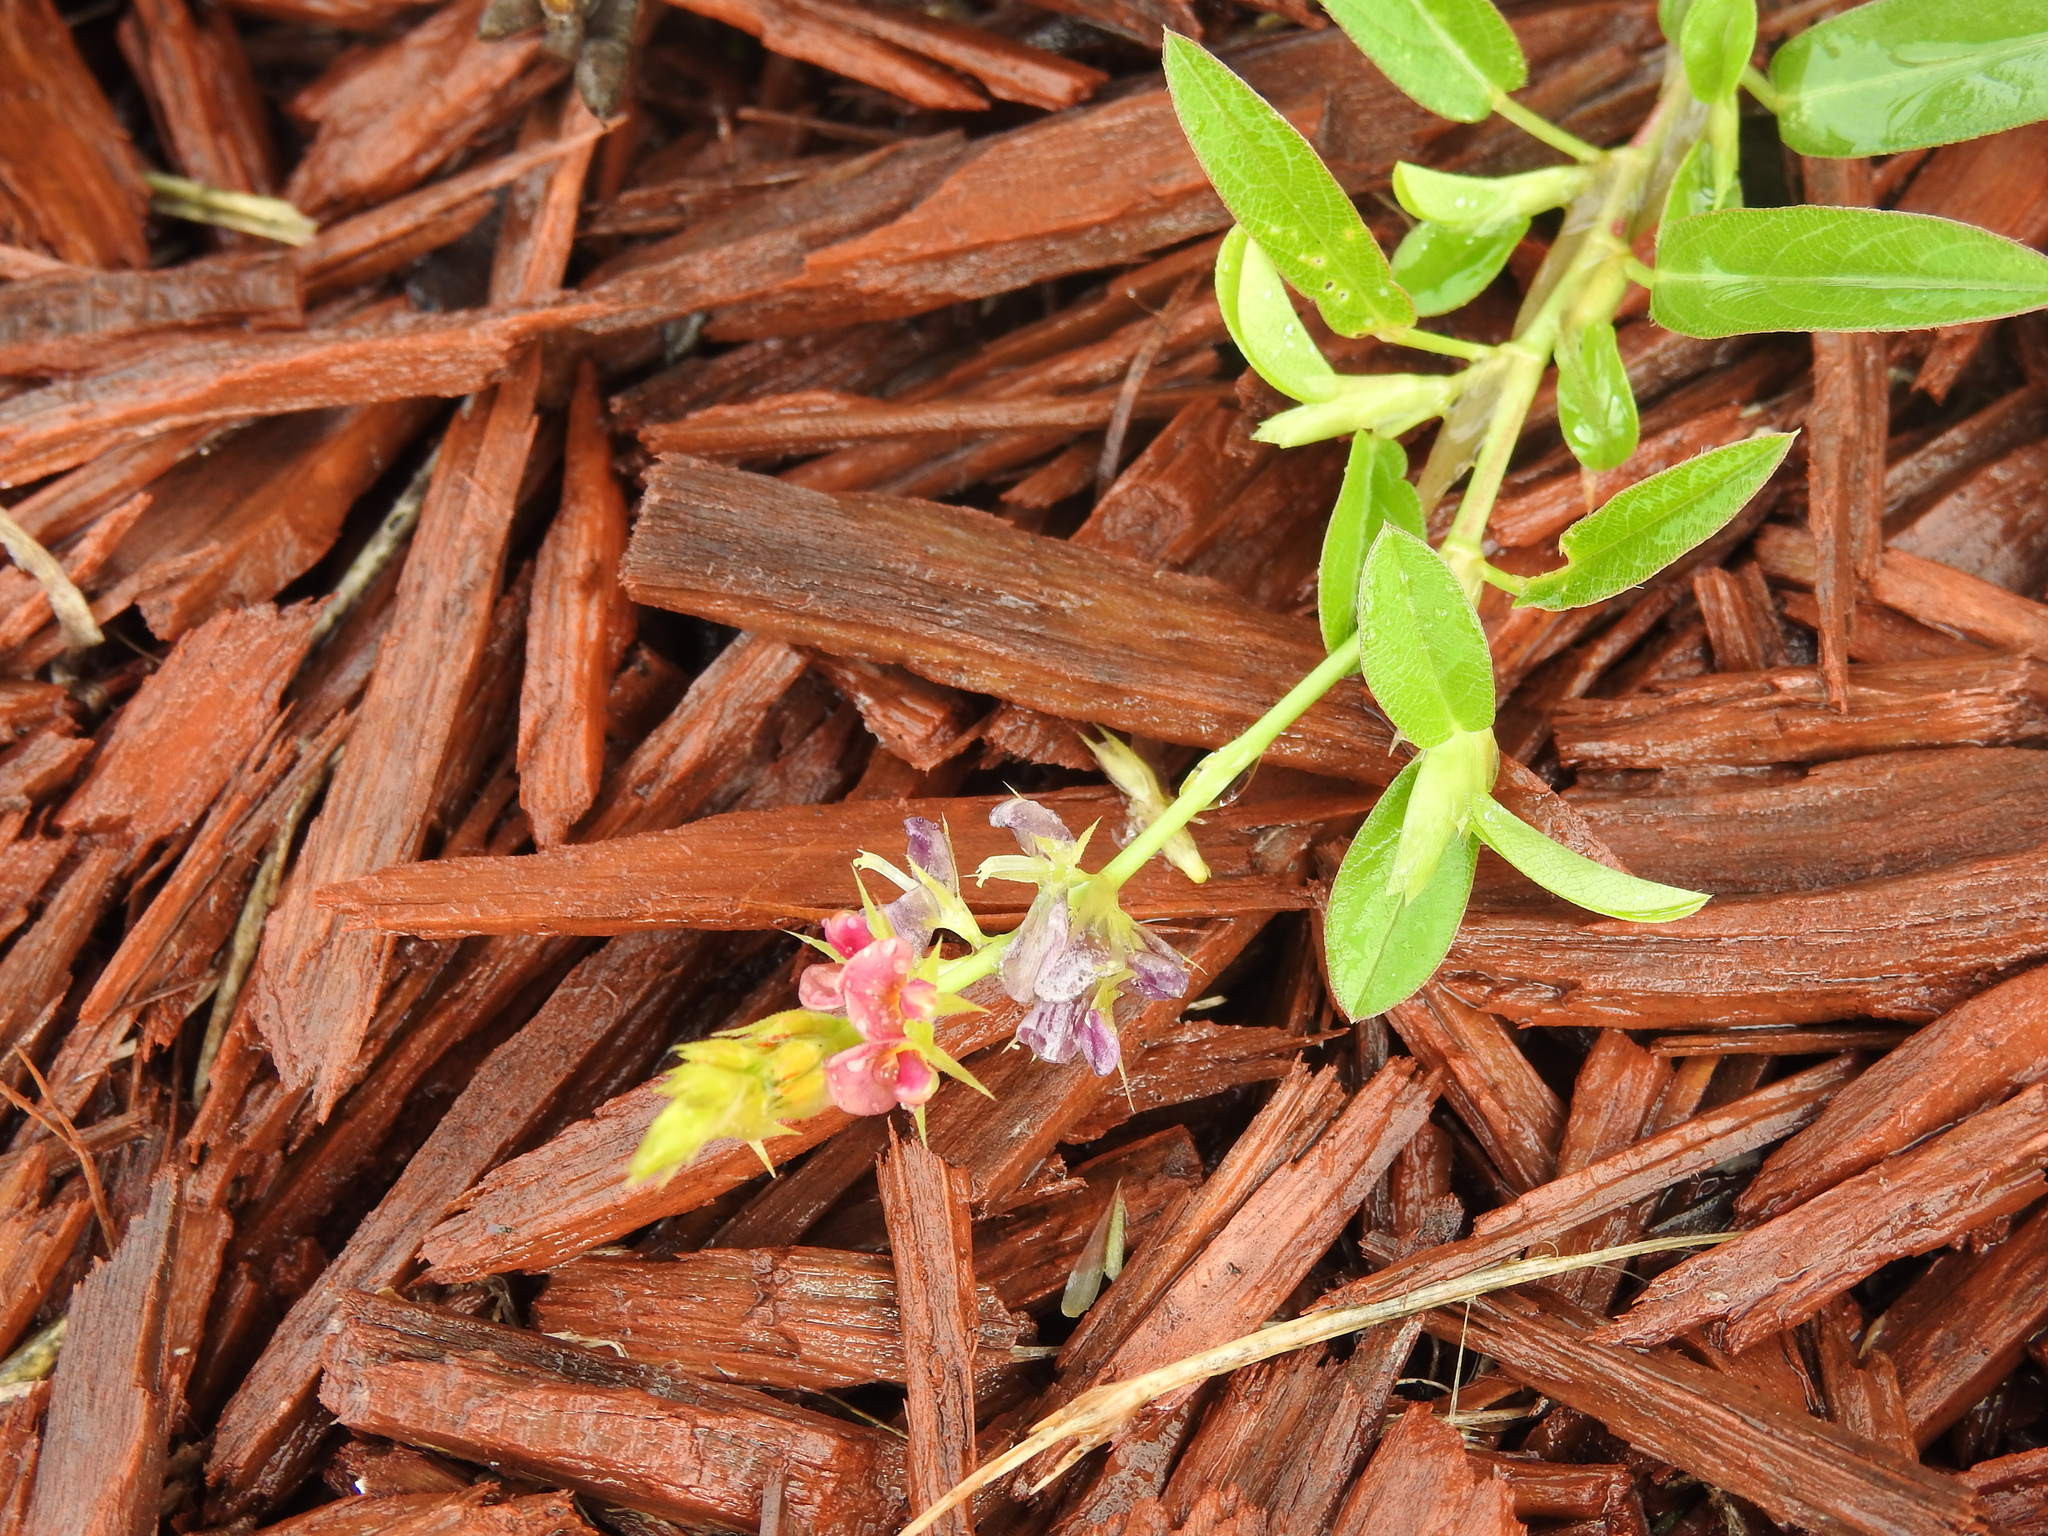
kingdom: Plantae
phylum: Tracheophyta
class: Magnoliopsida
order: Fabales
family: Fabaceae
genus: Alysicarpus
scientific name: Alysicarpus vaginalis
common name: White moneywort
